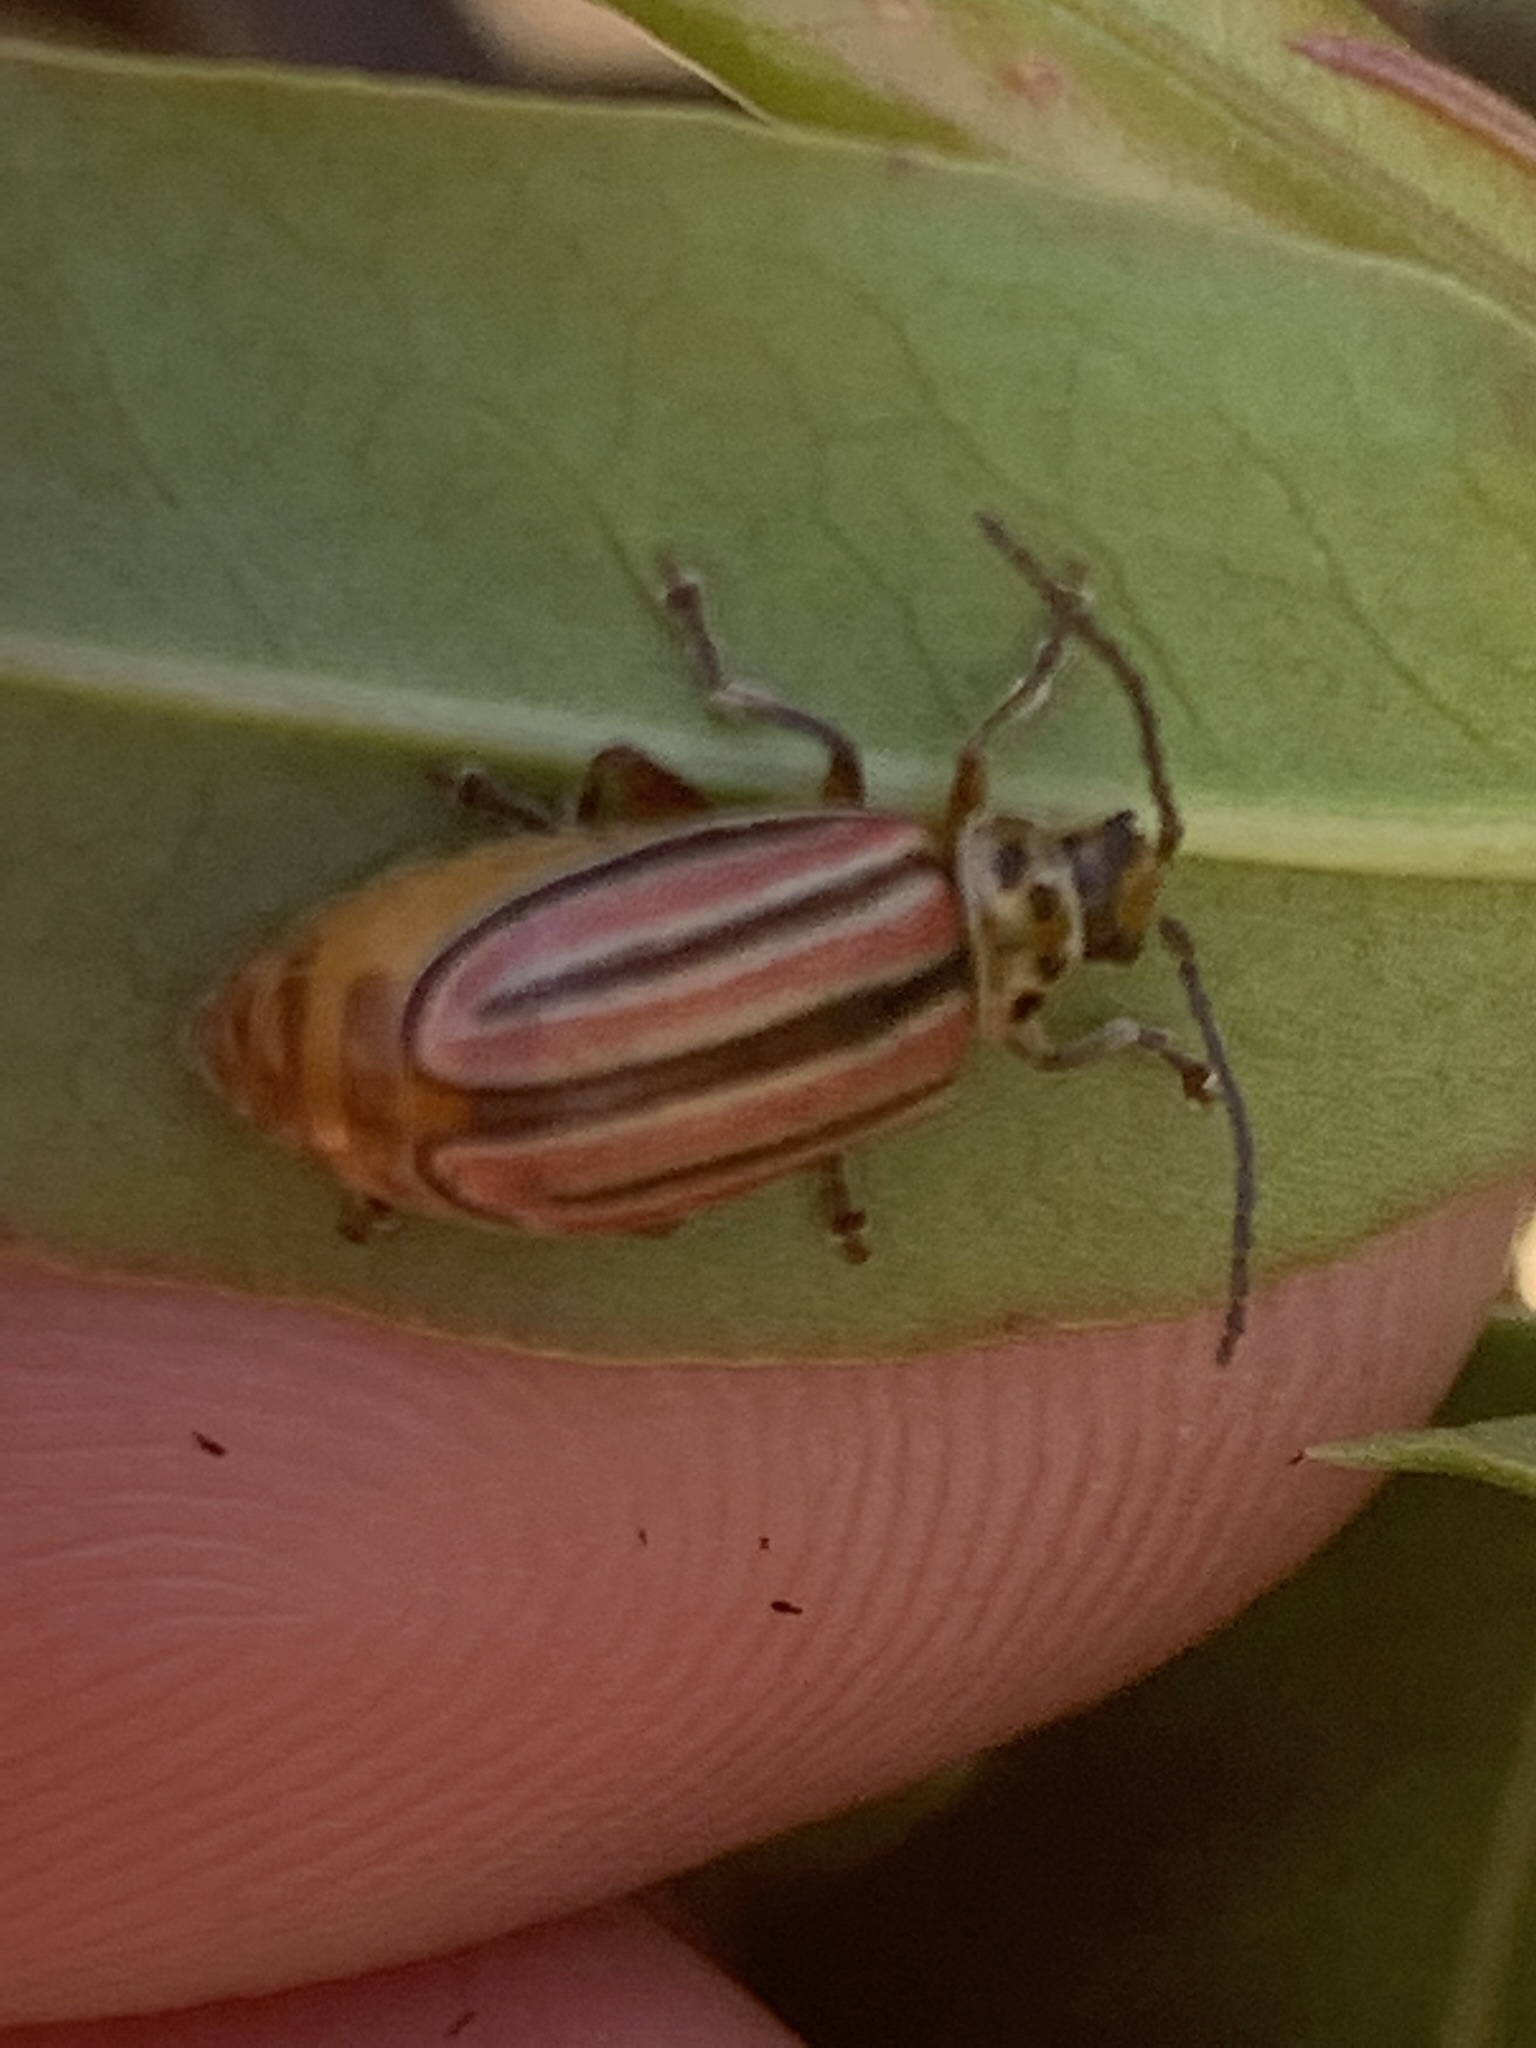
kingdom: Animalia
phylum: Arthropoda
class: Insecta
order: Coleoptera
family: Chrysomelidae
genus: Disonycha
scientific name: Disonycha
